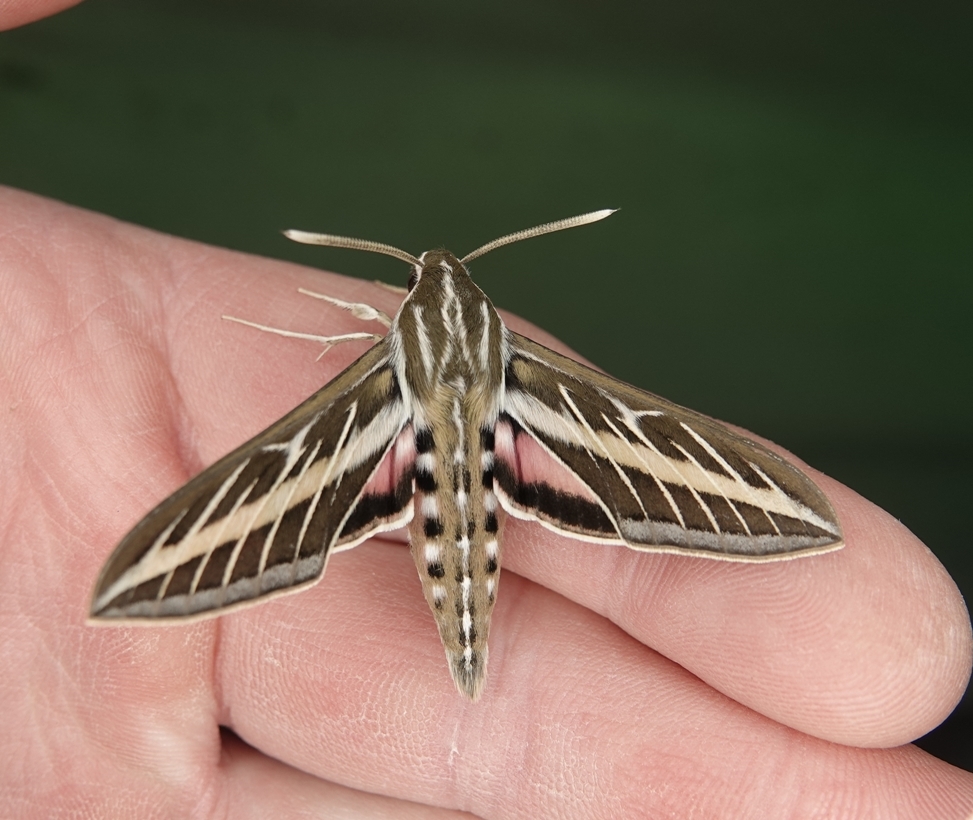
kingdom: Animalia
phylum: Arthropoda
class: Insecta
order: Lepidoptera
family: Sphingidae
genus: Hyles
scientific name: Hyles lineata
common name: White-lined sphinx
